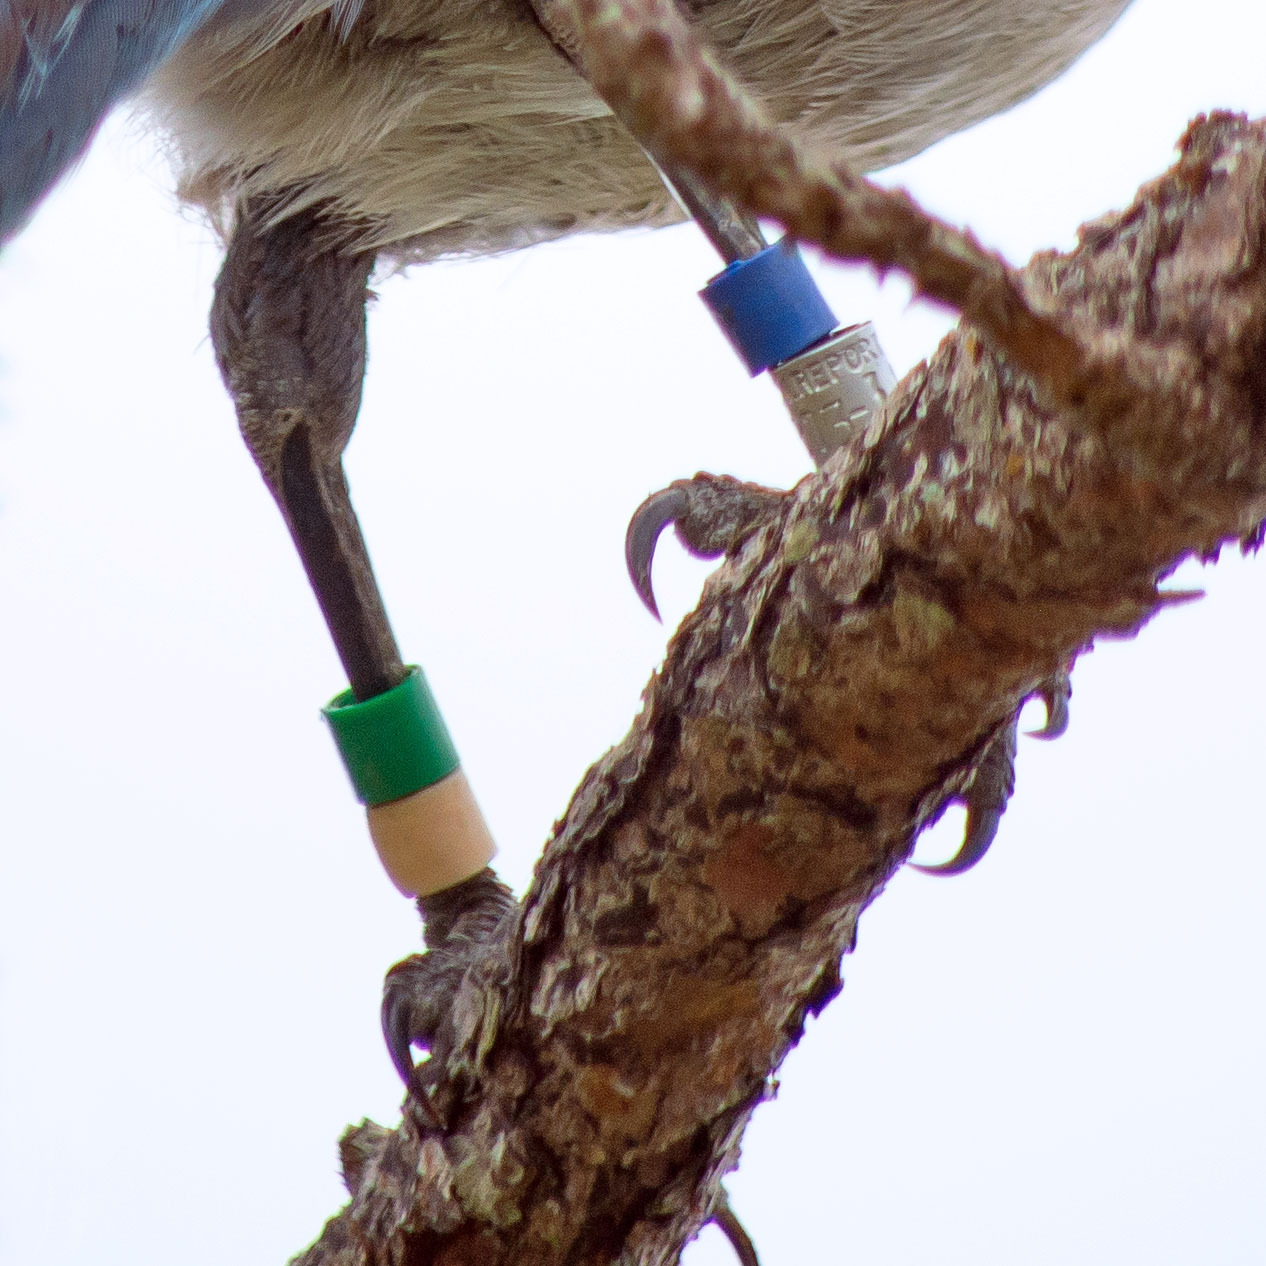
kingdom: Animalia
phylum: Chordata
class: Aves
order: Passeriformes
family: Corvidae
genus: Aphelocoma
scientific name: Aphelocoma coerulescens
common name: Florida scrub jay
